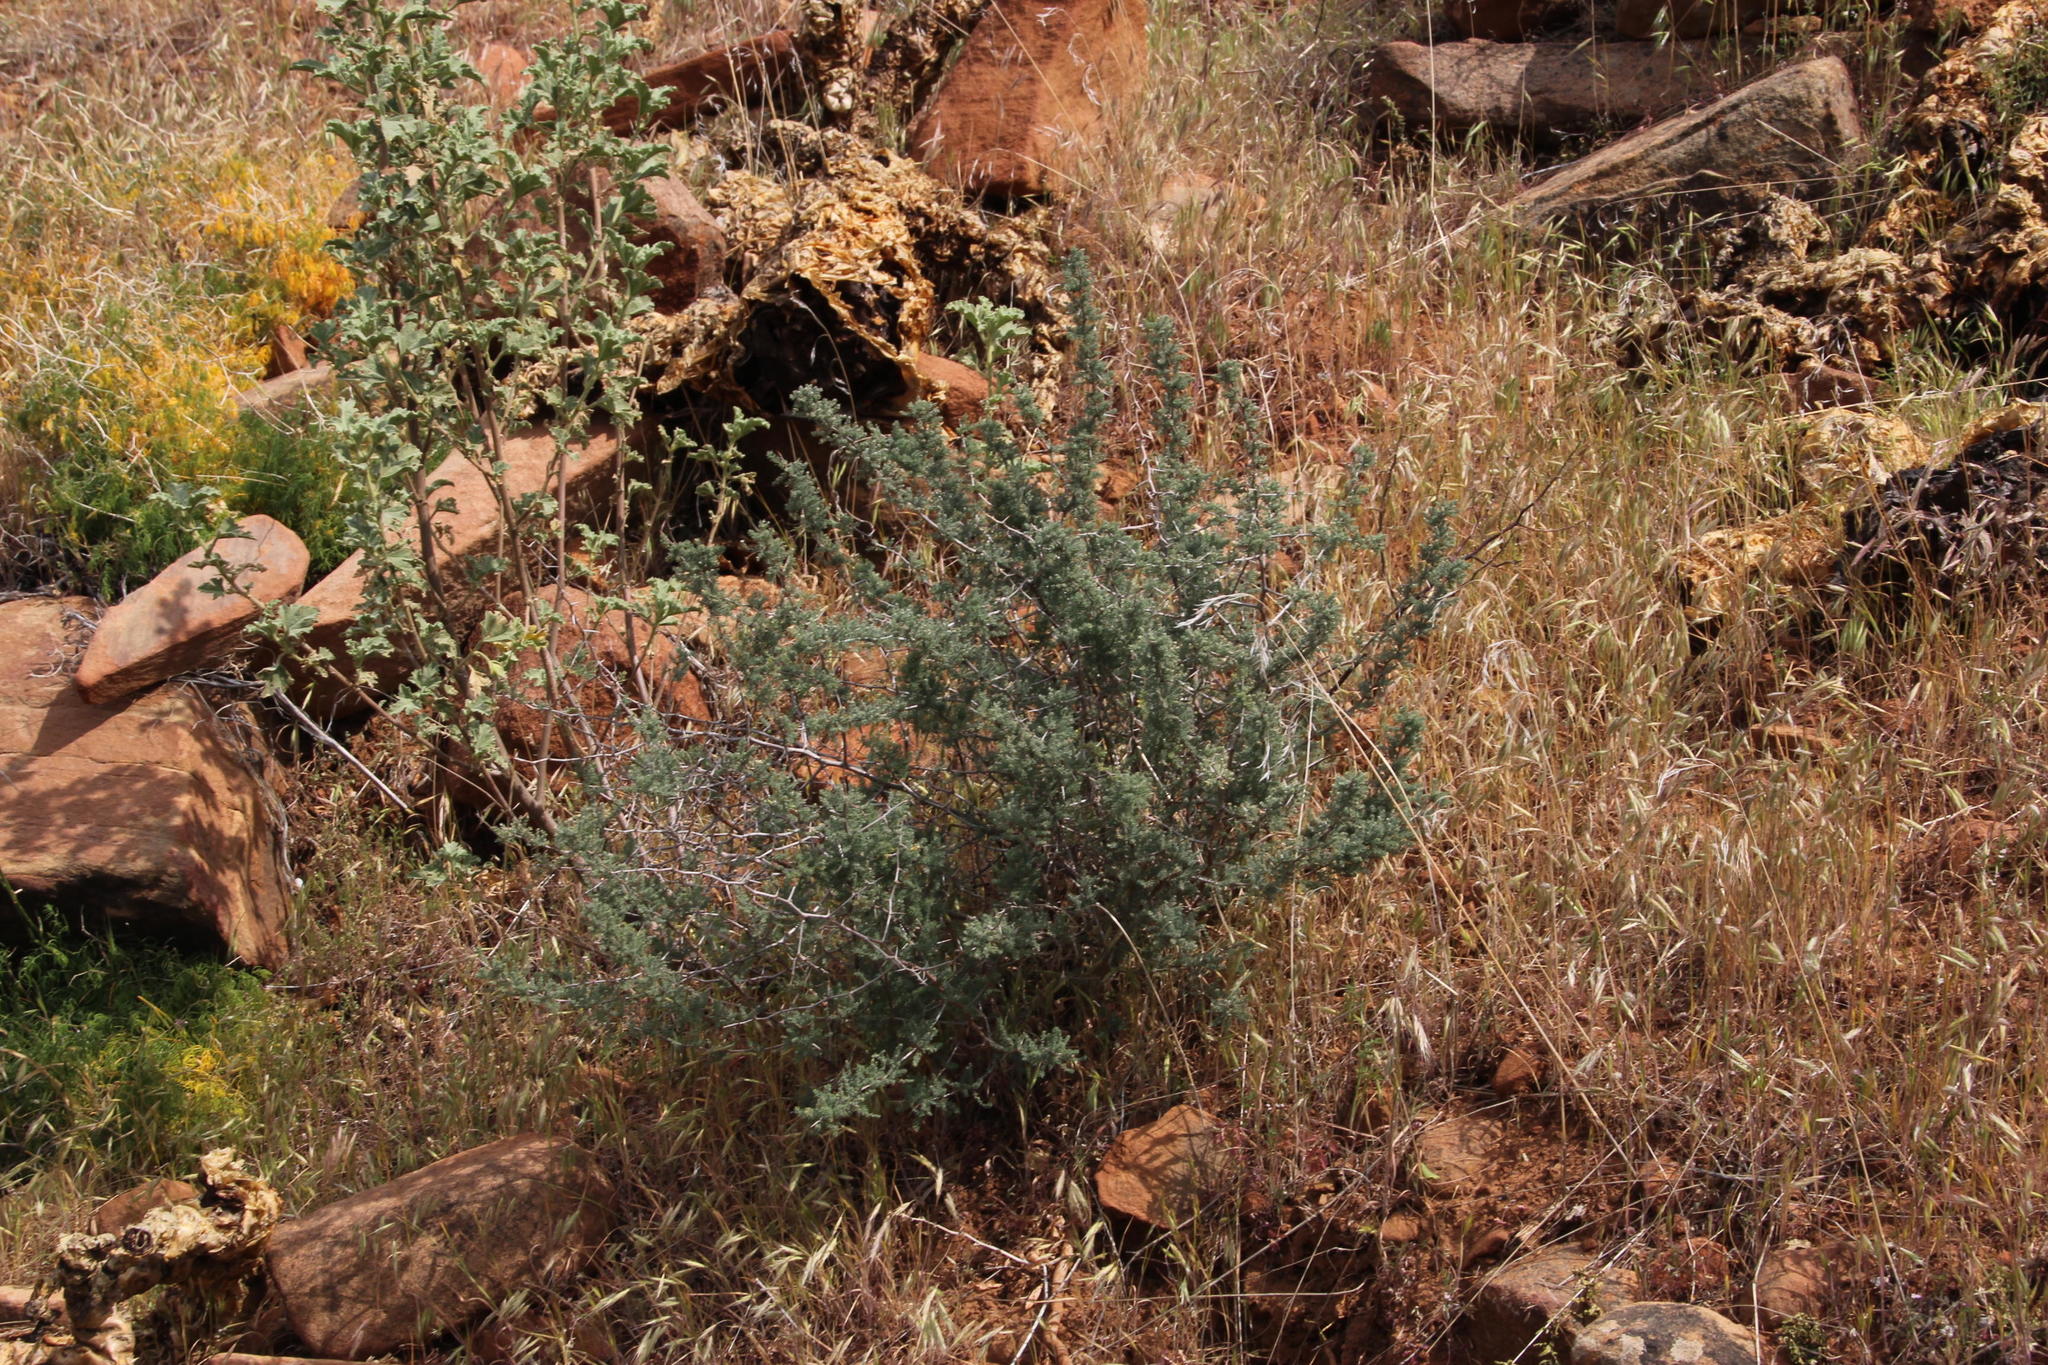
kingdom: Plantae
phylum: Tracheophyta
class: Liliopsida
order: Asparagales
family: Asparagaceae
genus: Asparagus
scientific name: Asparagus capensis
